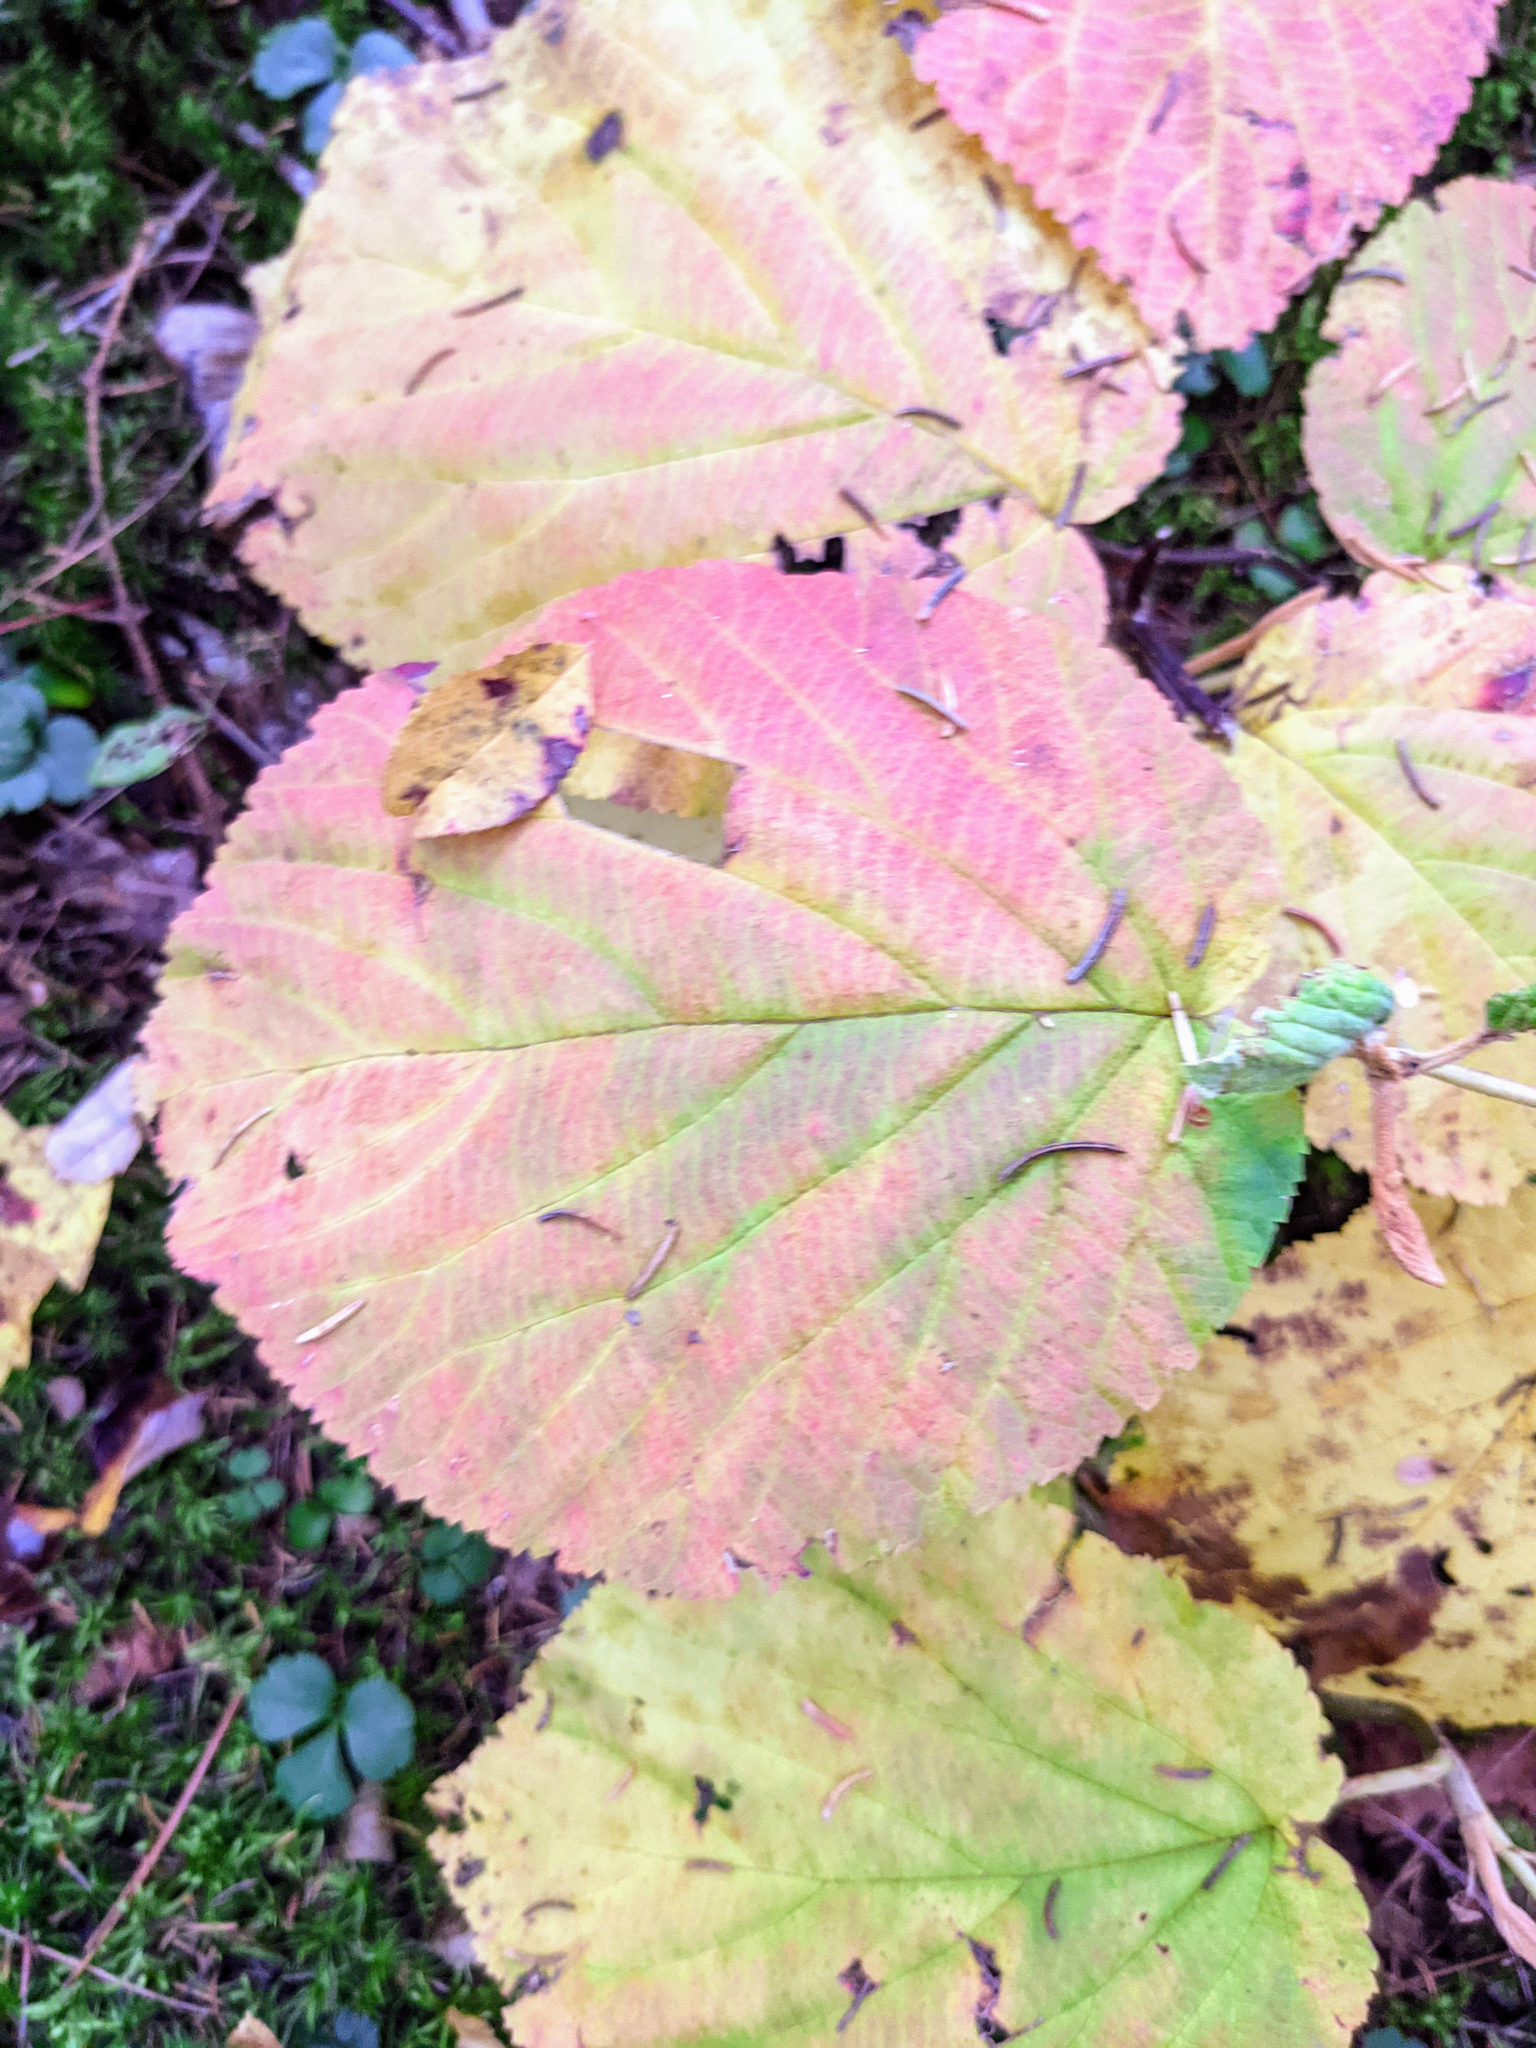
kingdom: Plantae
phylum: Tracheophyta
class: Magnoliopsida
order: Dipsacales
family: Viburnaceae
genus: Viburnum
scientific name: Viburnum lantanoides
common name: Hobblebush
